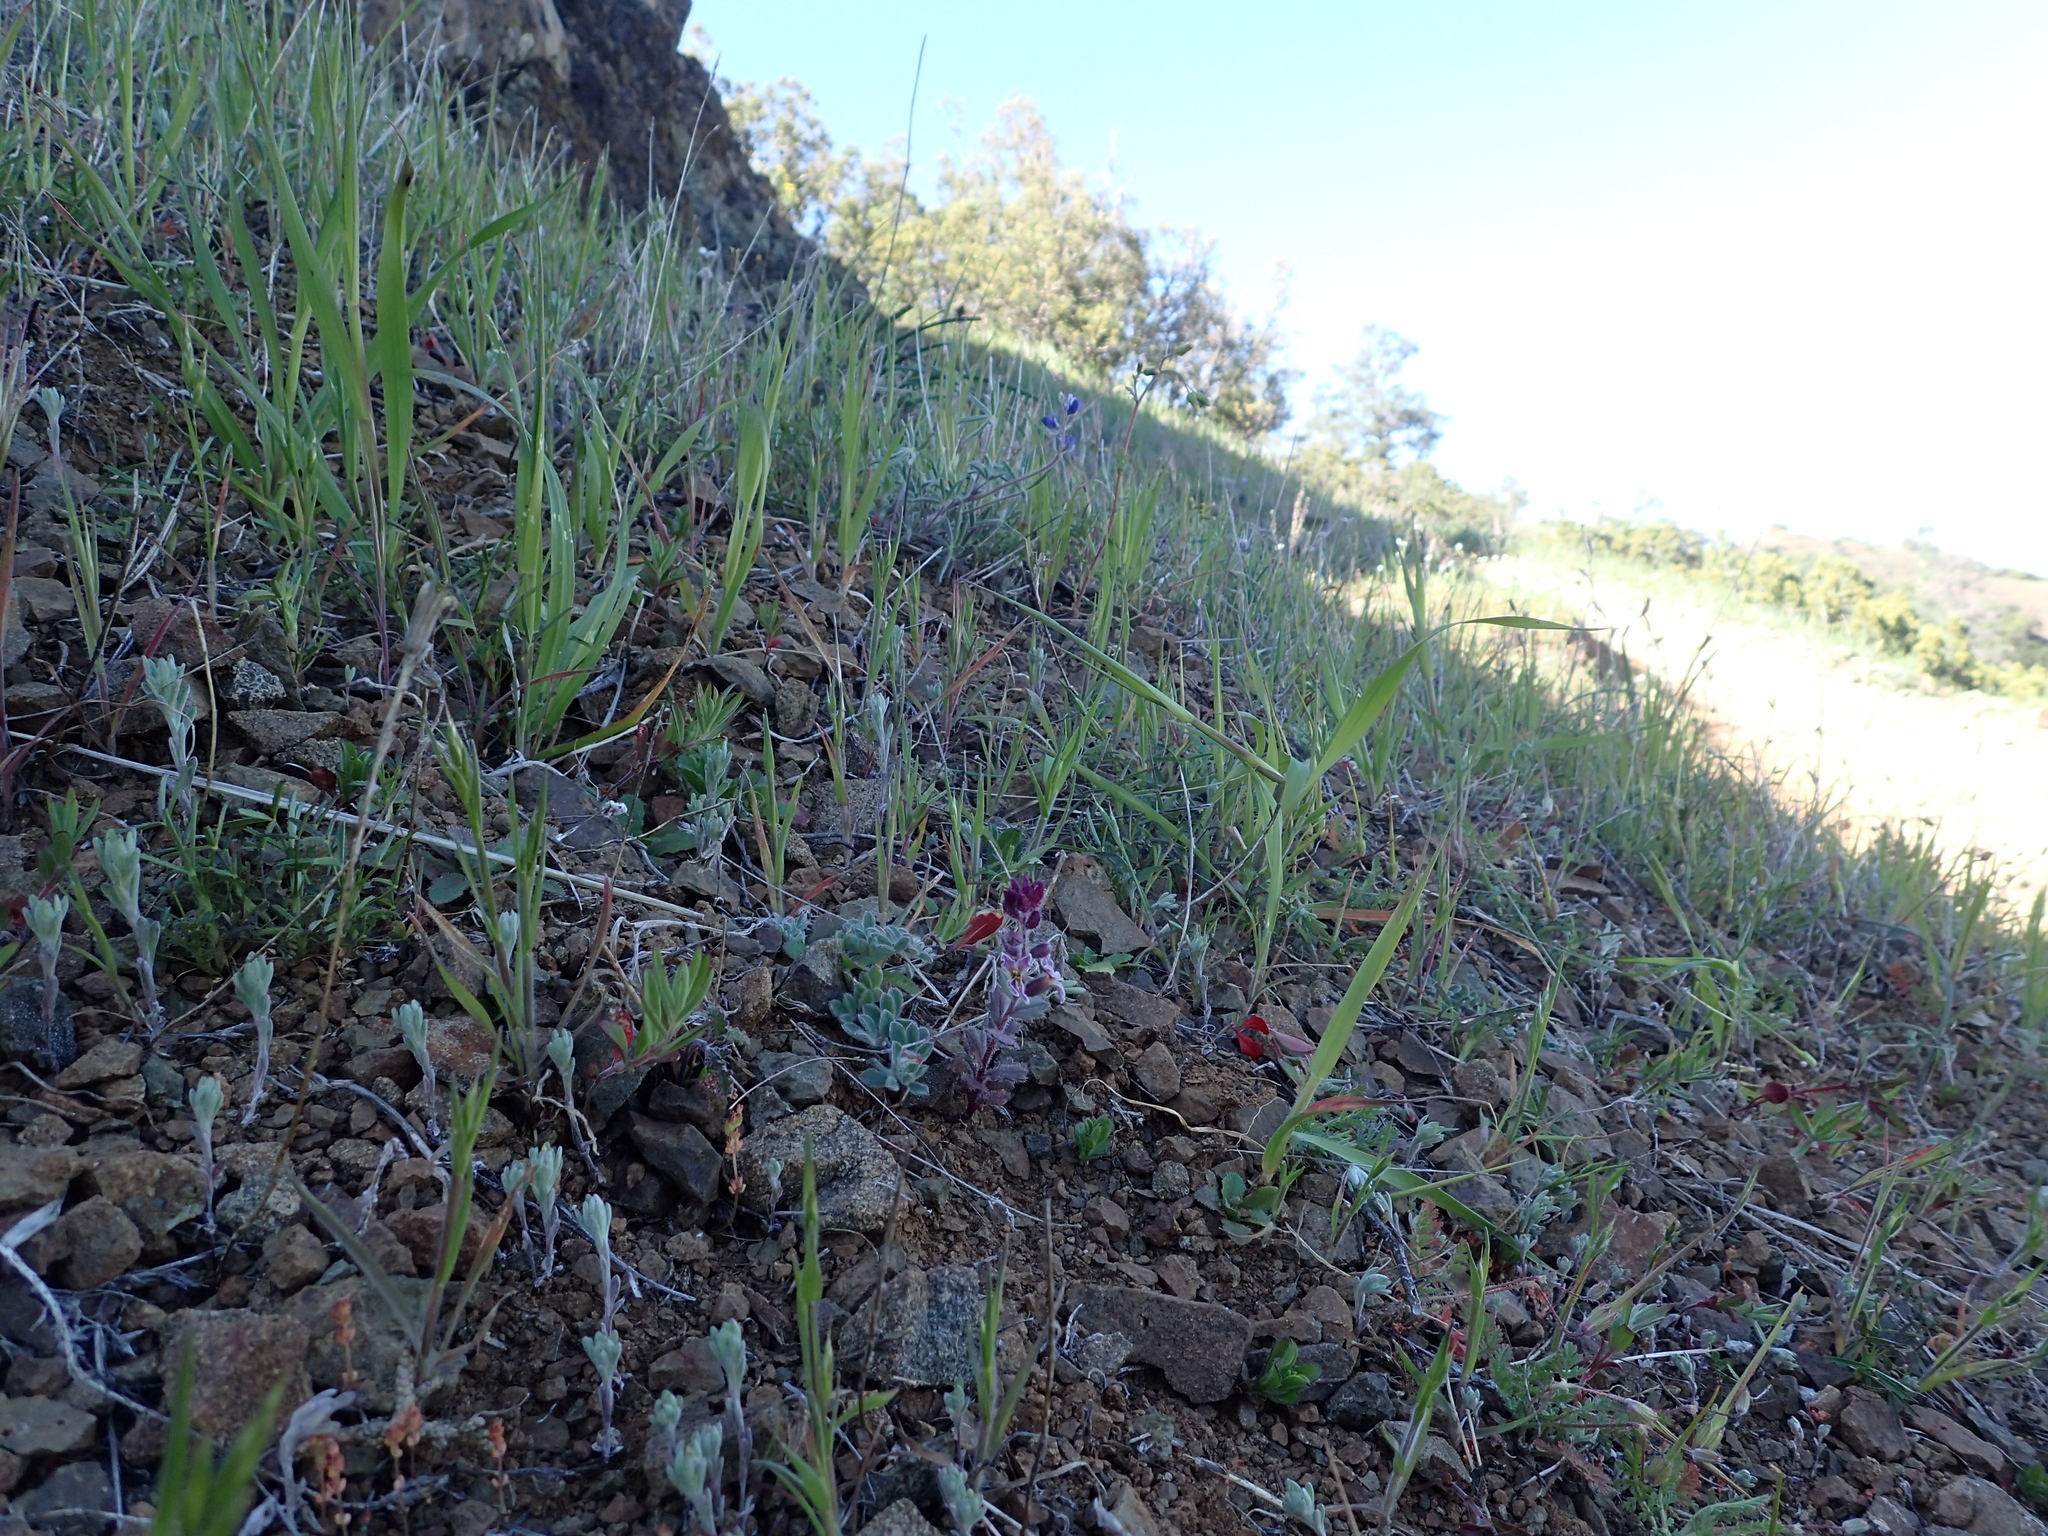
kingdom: Plantae
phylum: Tracheophyta
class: Magnoliopsida
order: Brassicales
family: Brassicaceae
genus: Streptanthus
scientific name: Streptanthus hispidus
